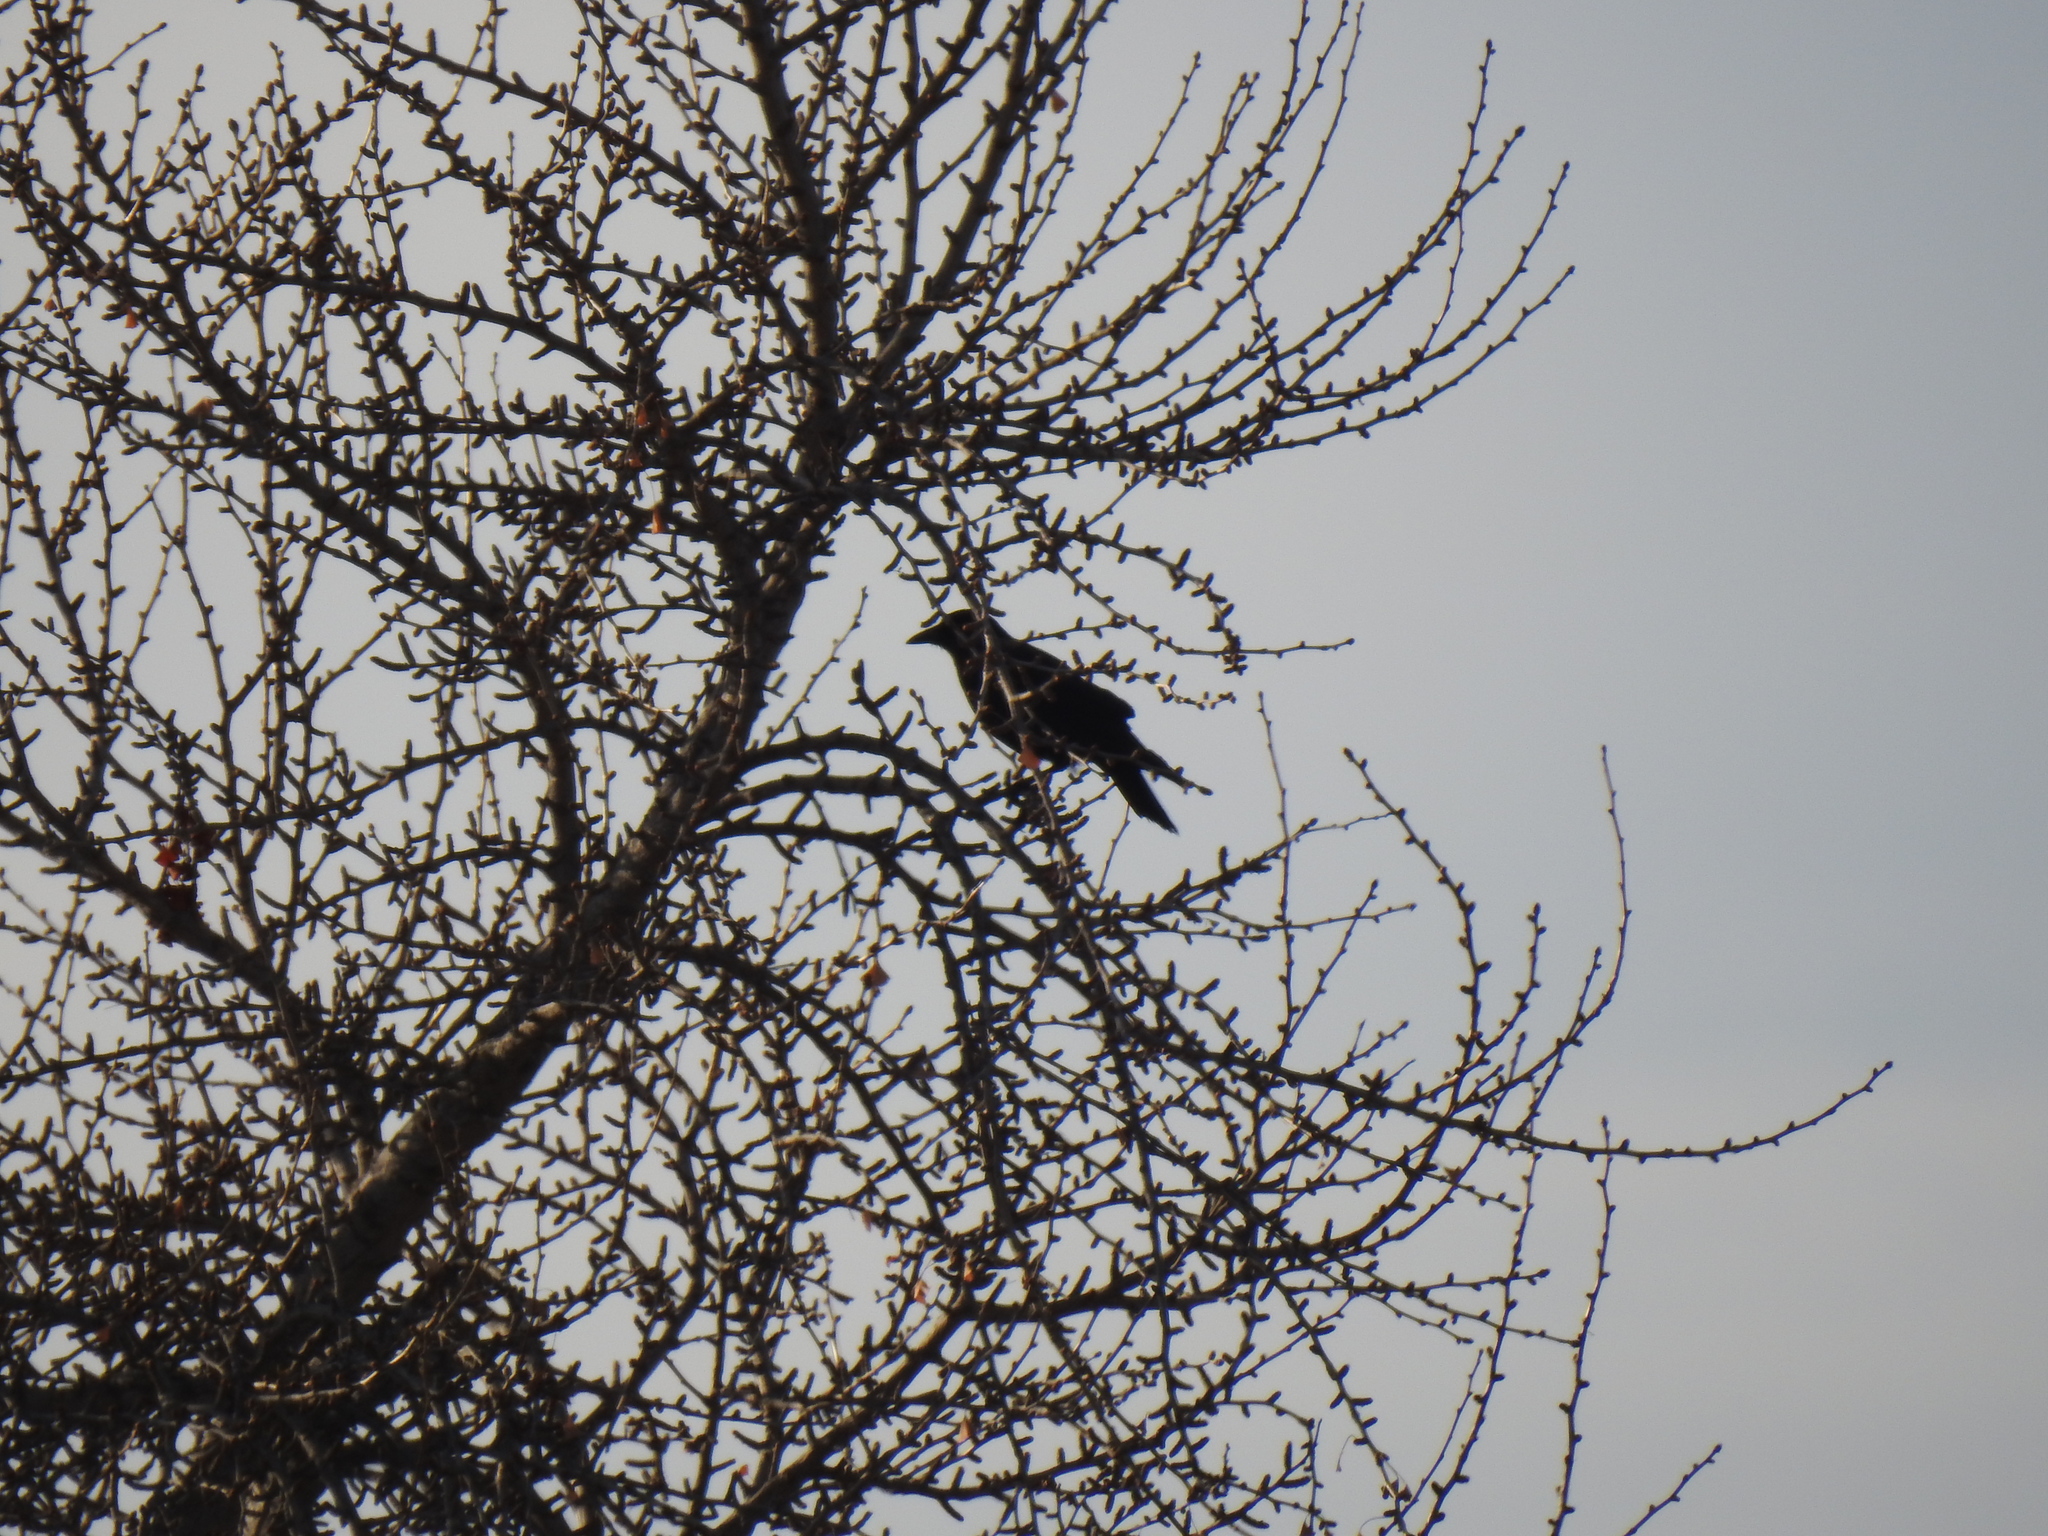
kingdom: Animalia
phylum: Chordata
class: Aves
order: Passeriformes
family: Corvidae
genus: Corvus
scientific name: Corvus brachyrhynchos
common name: American crow
